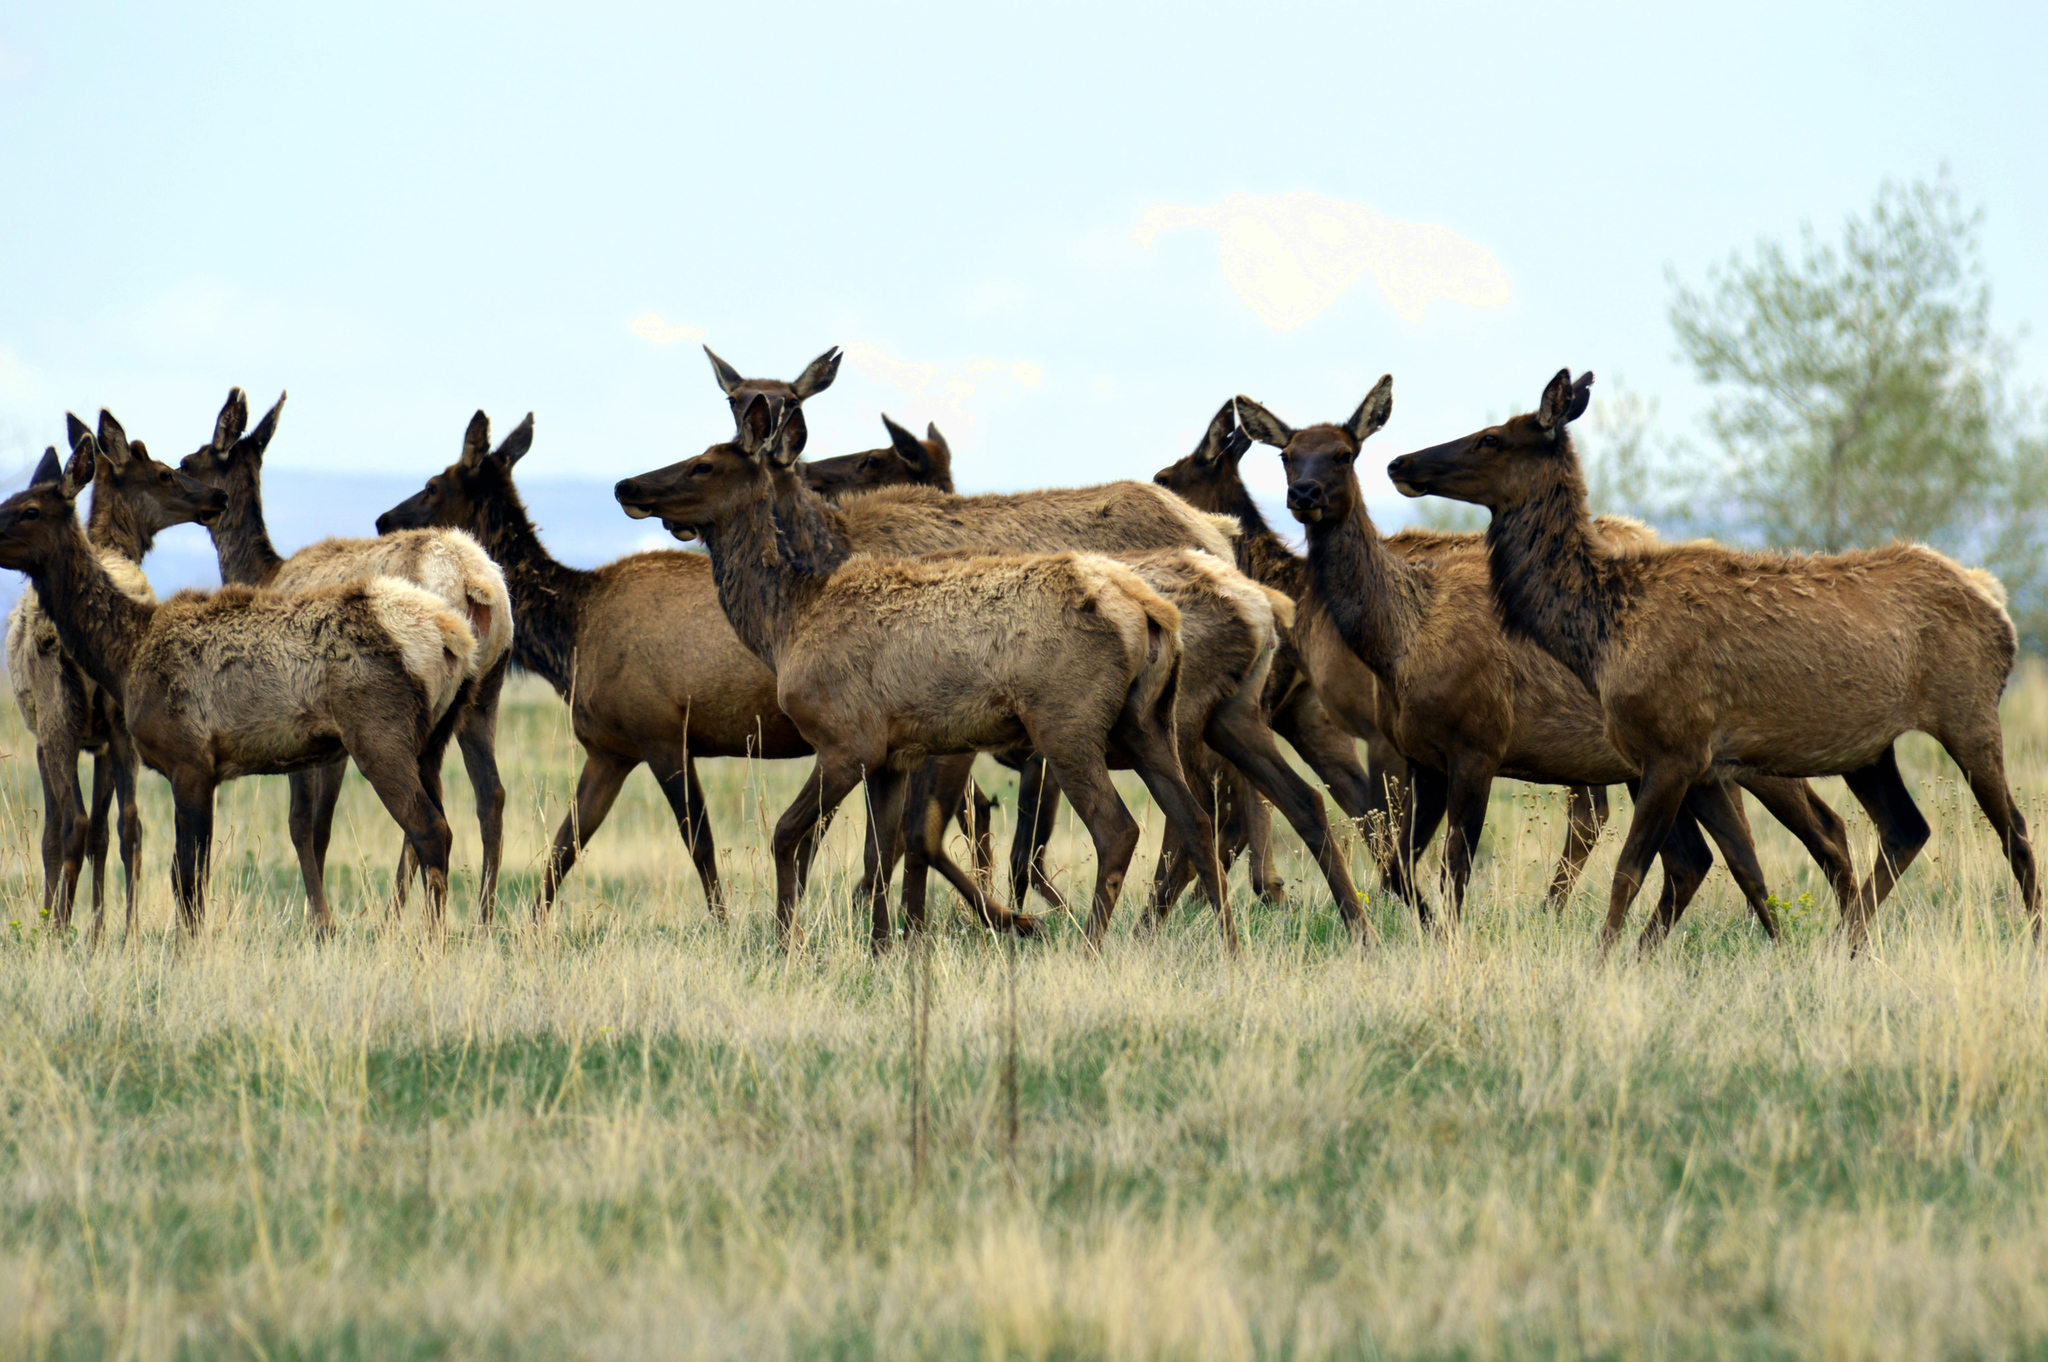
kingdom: Animalia
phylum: Chordata
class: Mammalia
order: Artiodactyla
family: Cervidae
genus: Cervus
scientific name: Cervus elaphus
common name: Red deer
